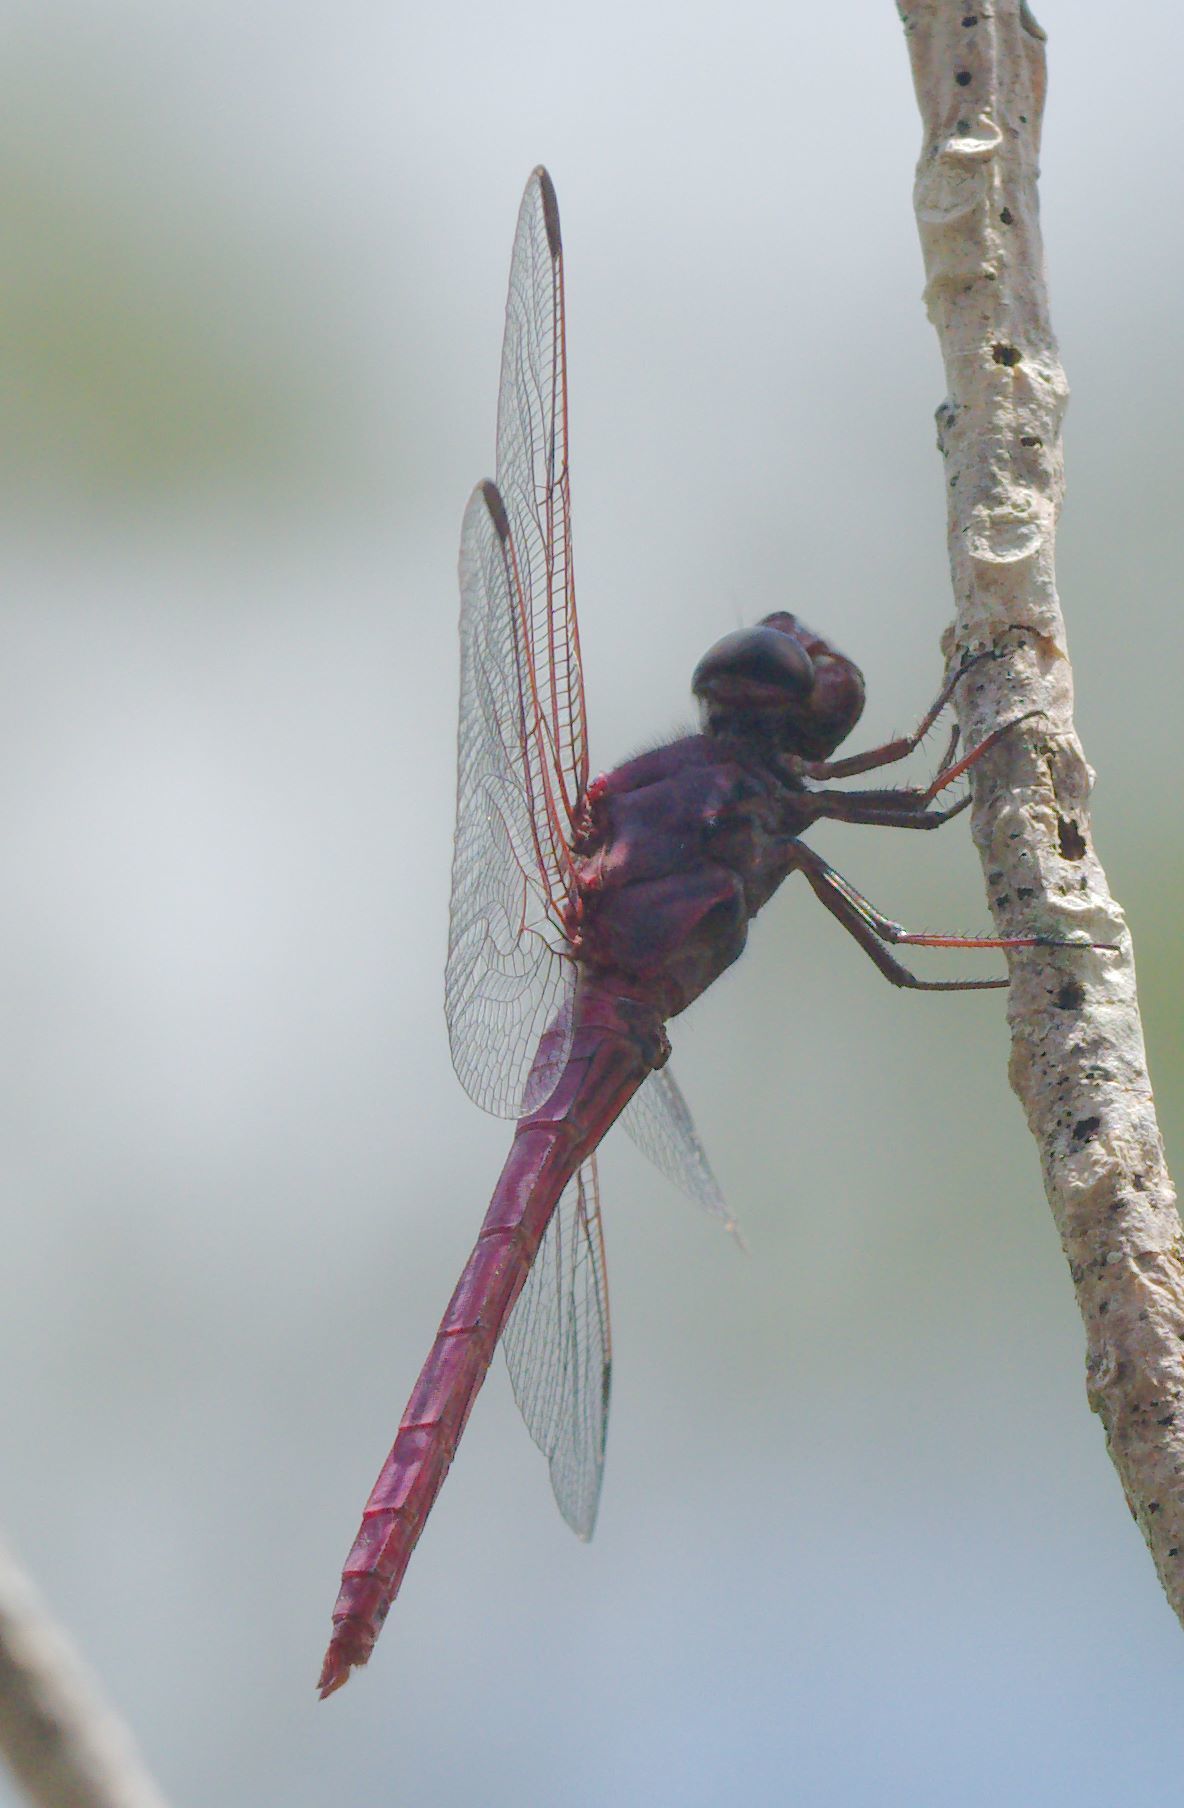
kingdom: Animalia
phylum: Arthropoda
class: Insecta
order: Odonata
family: Libellulidae
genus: Orthemis
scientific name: Orthemis ferruginea
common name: Roseate skimmer
